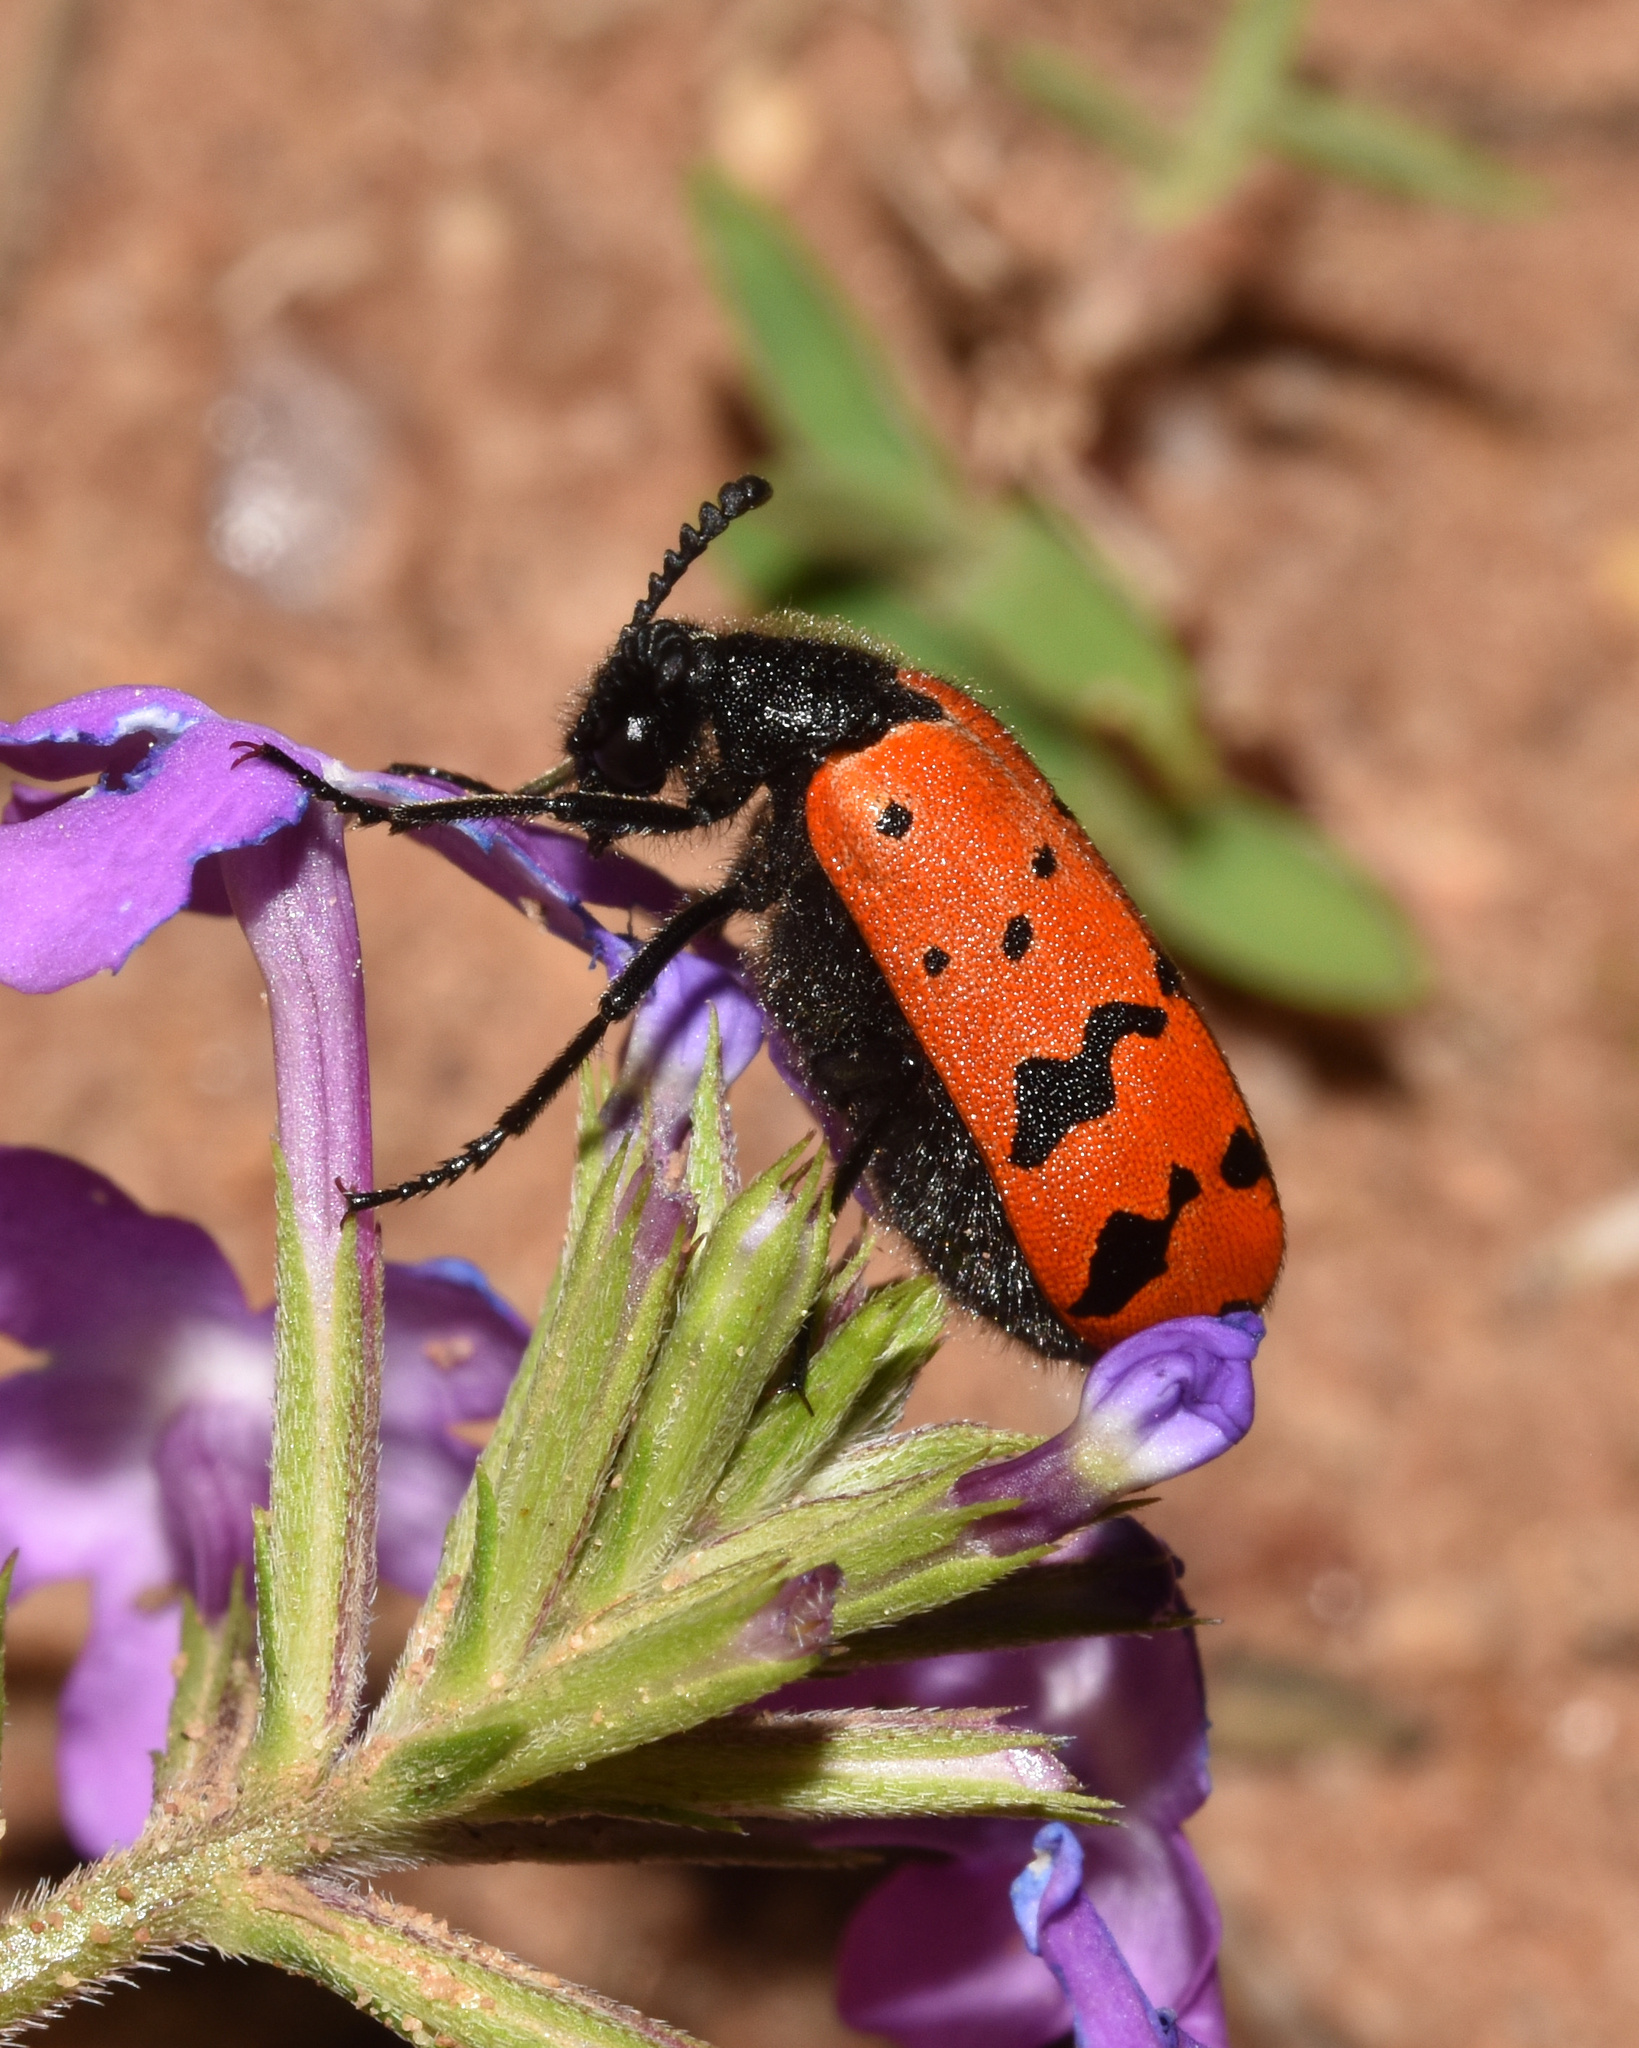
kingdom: Animalia
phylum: Arthropoda
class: Insecta
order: Coleoptera
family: Meloidae
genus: Ceroctis
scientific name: Ceroctis
